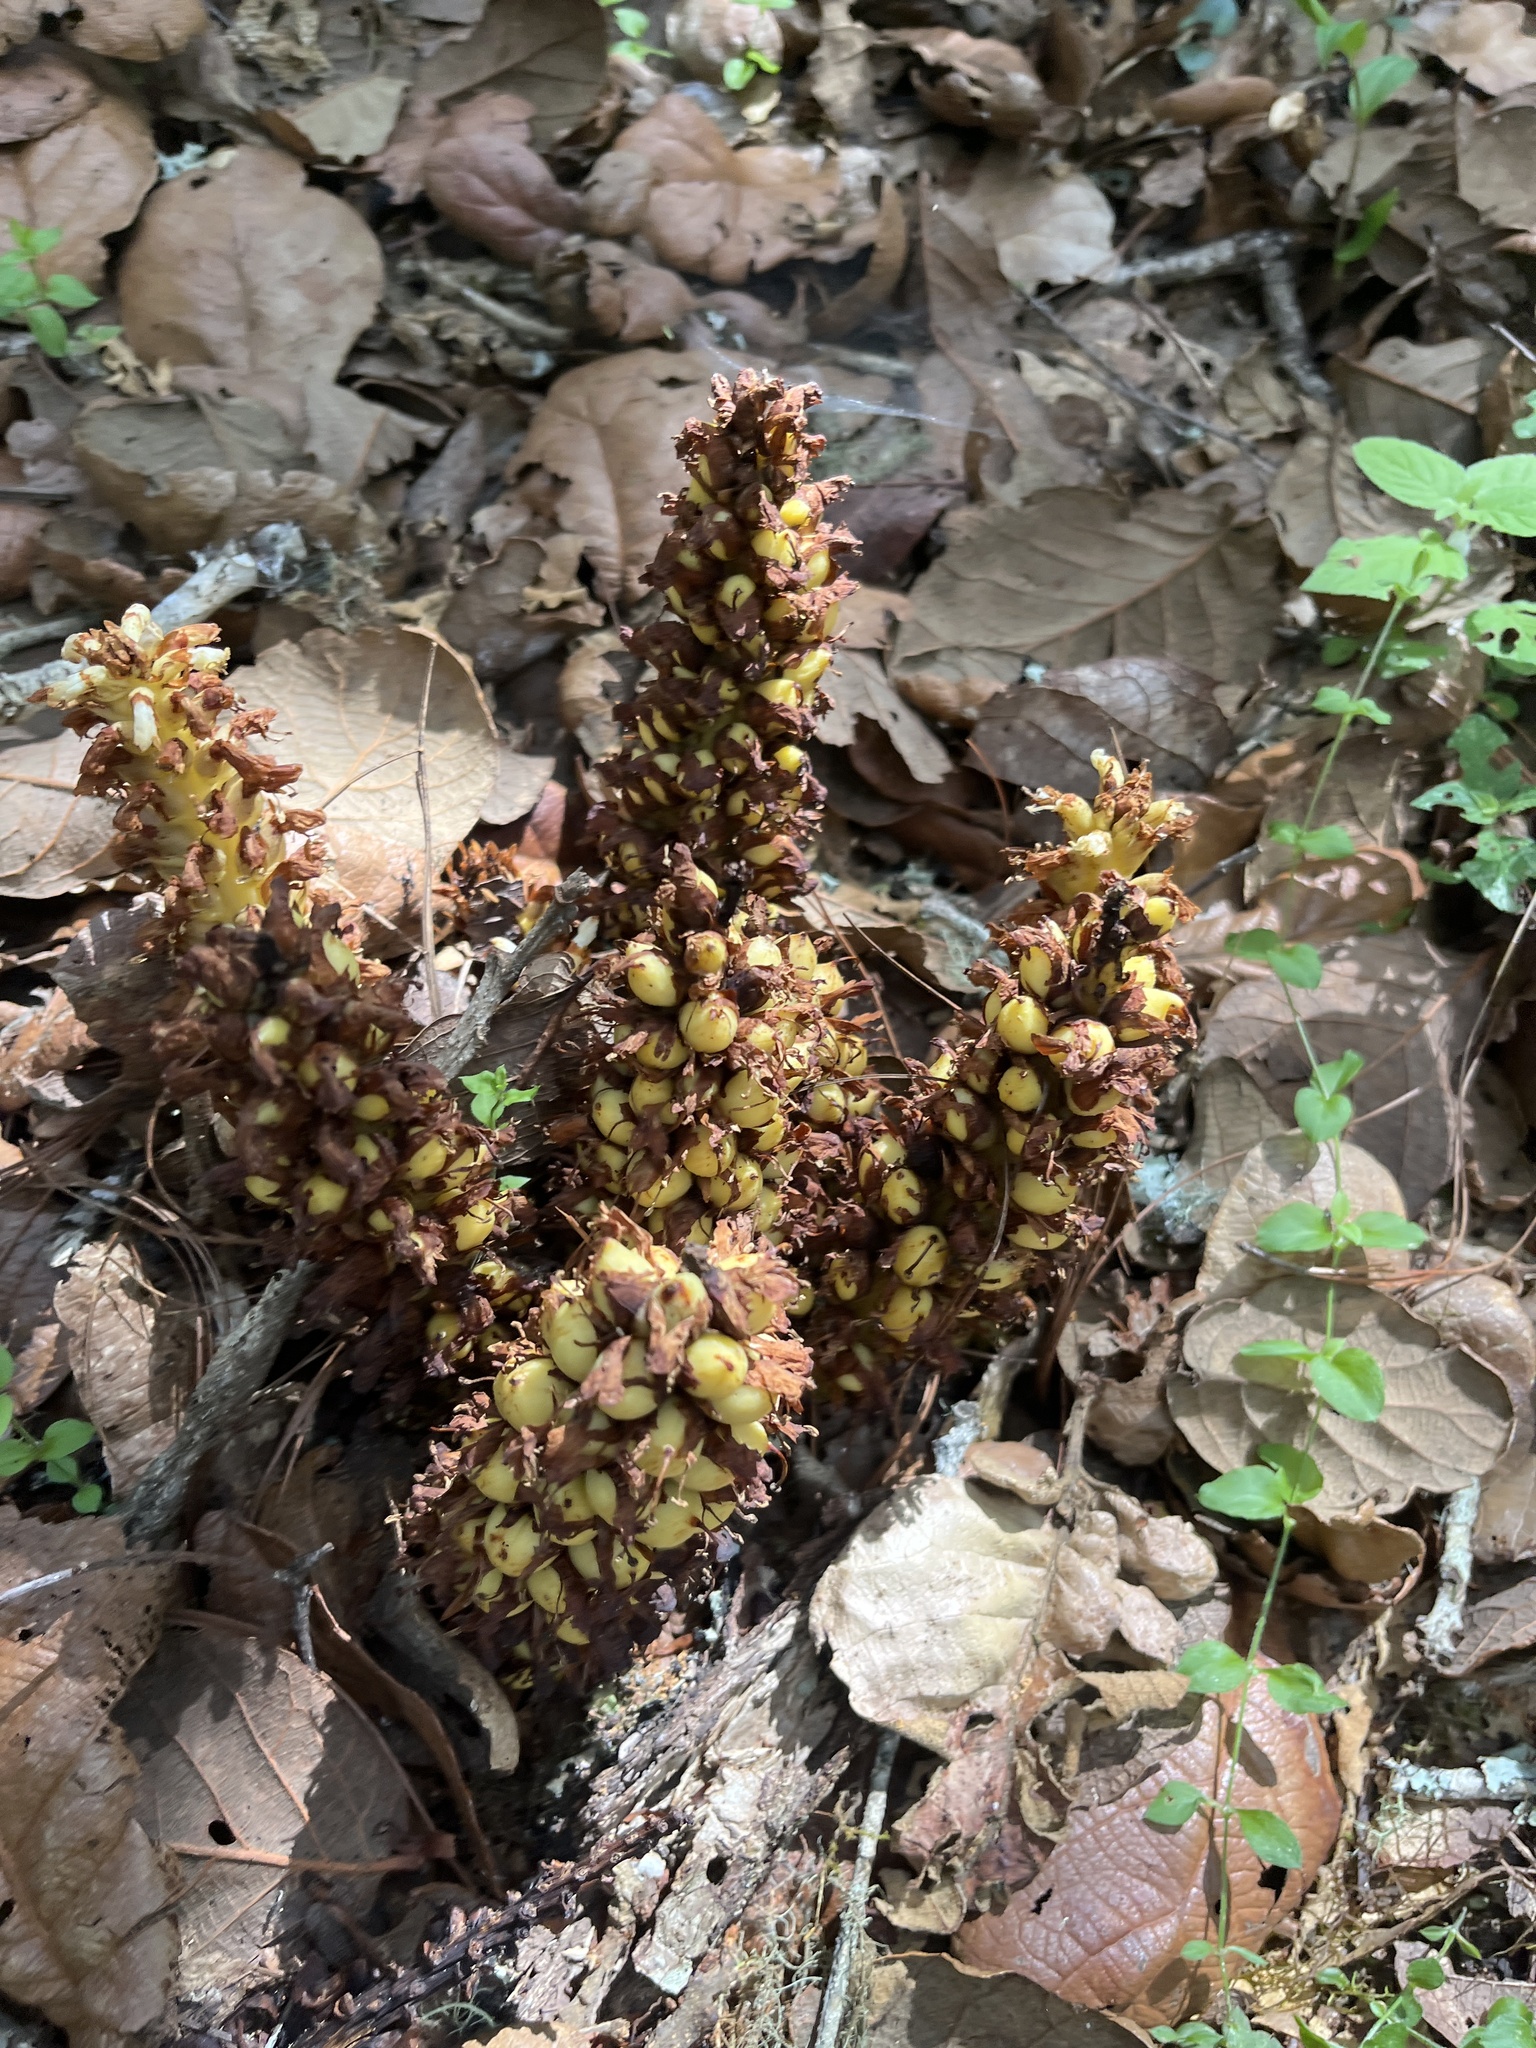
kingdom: Plantae
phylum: Tracheophyta
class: Magnoliopsida
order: Lamiales
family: Orobanchaceae
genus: Conopholis
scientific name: Conopholis alpina
